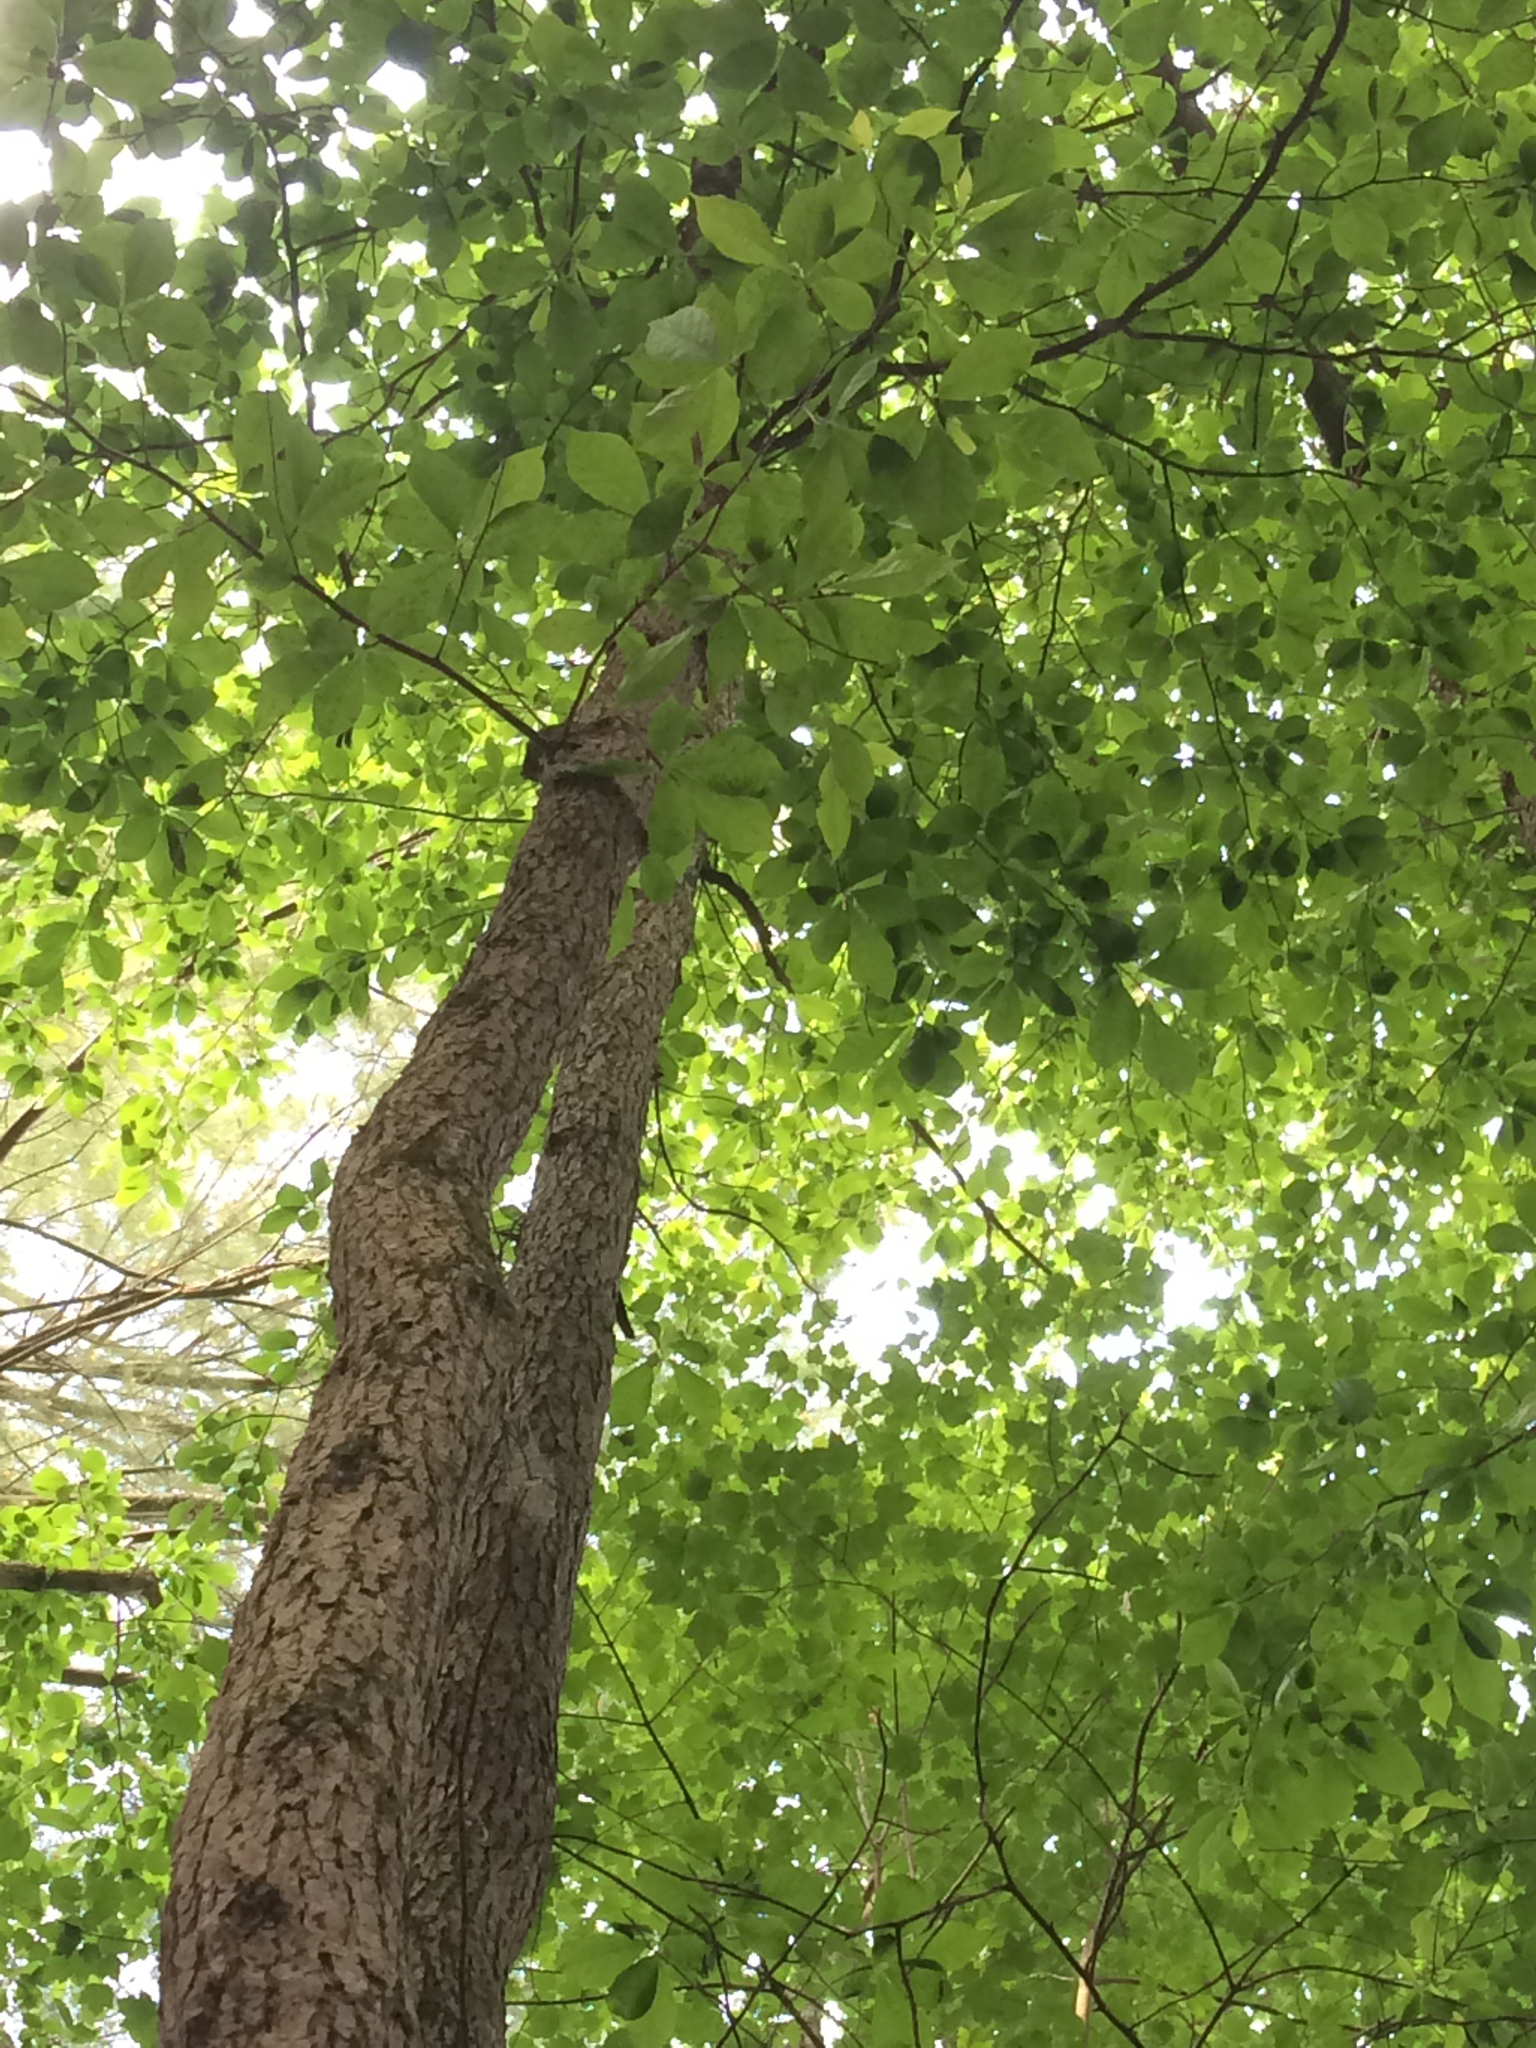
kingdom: Plantae
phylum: Tracheophyta
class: Magnoliopsida
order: Cornales
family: Nyssaceae
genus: Nyssa
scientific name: Nyssa sylvatica
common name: Black tupelo
